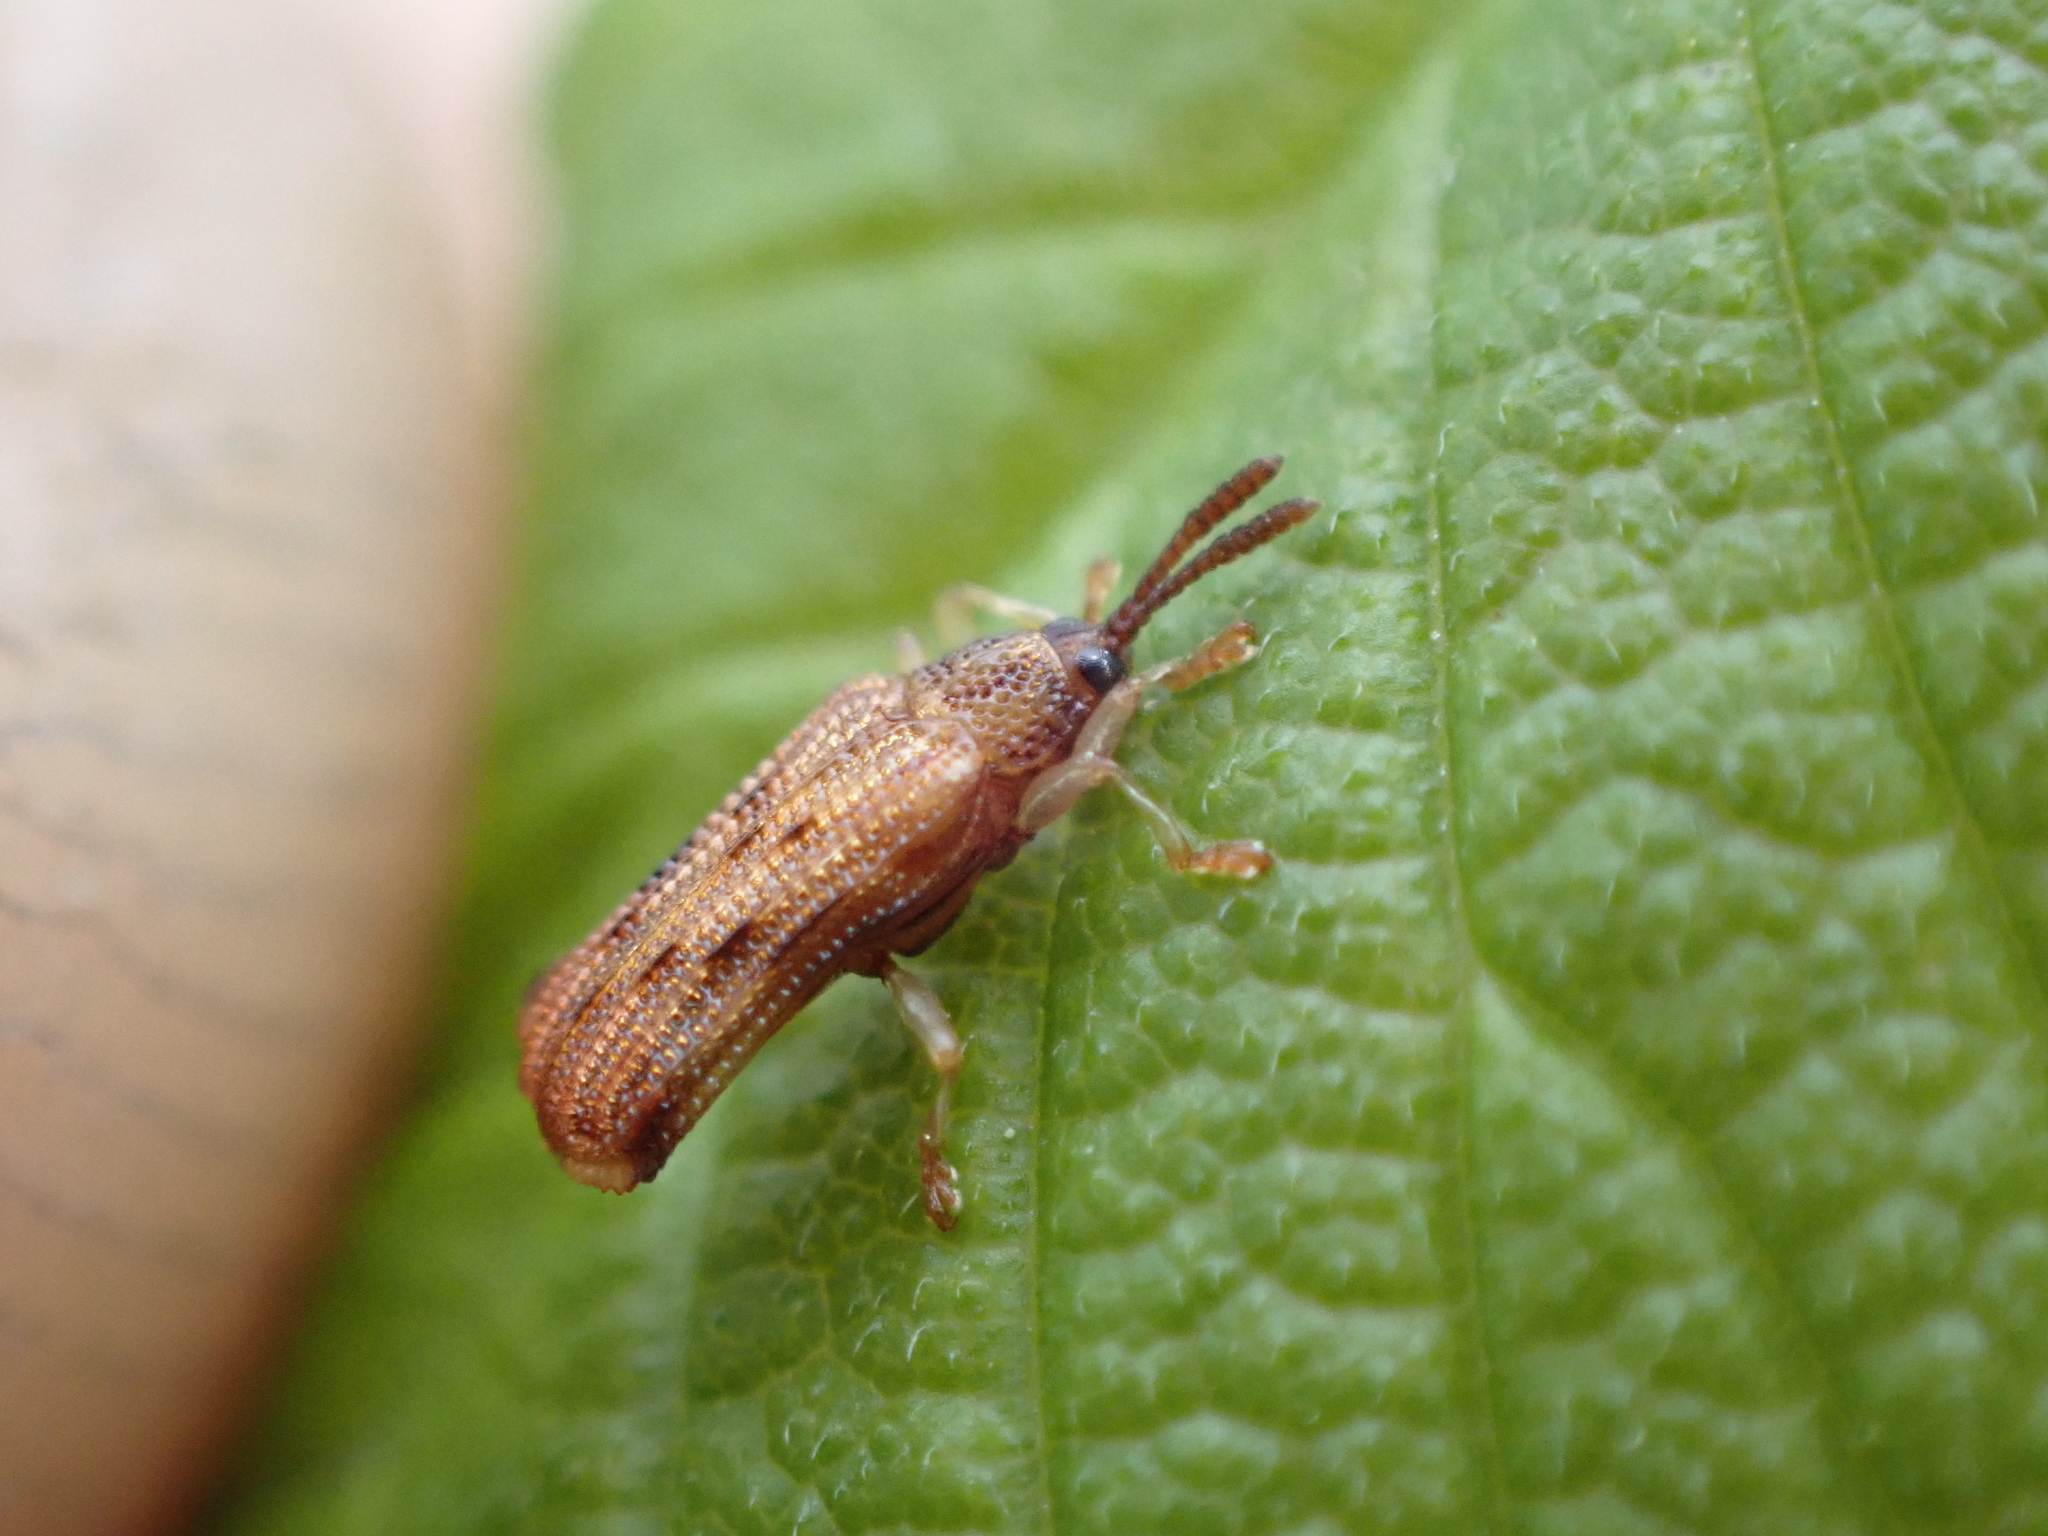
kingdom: Animalia
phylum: Arthropoda
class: Insecta
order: Coleoptera
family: Chrysomelidae
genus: Sumitrosis
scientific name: Sumitrosis rosea
